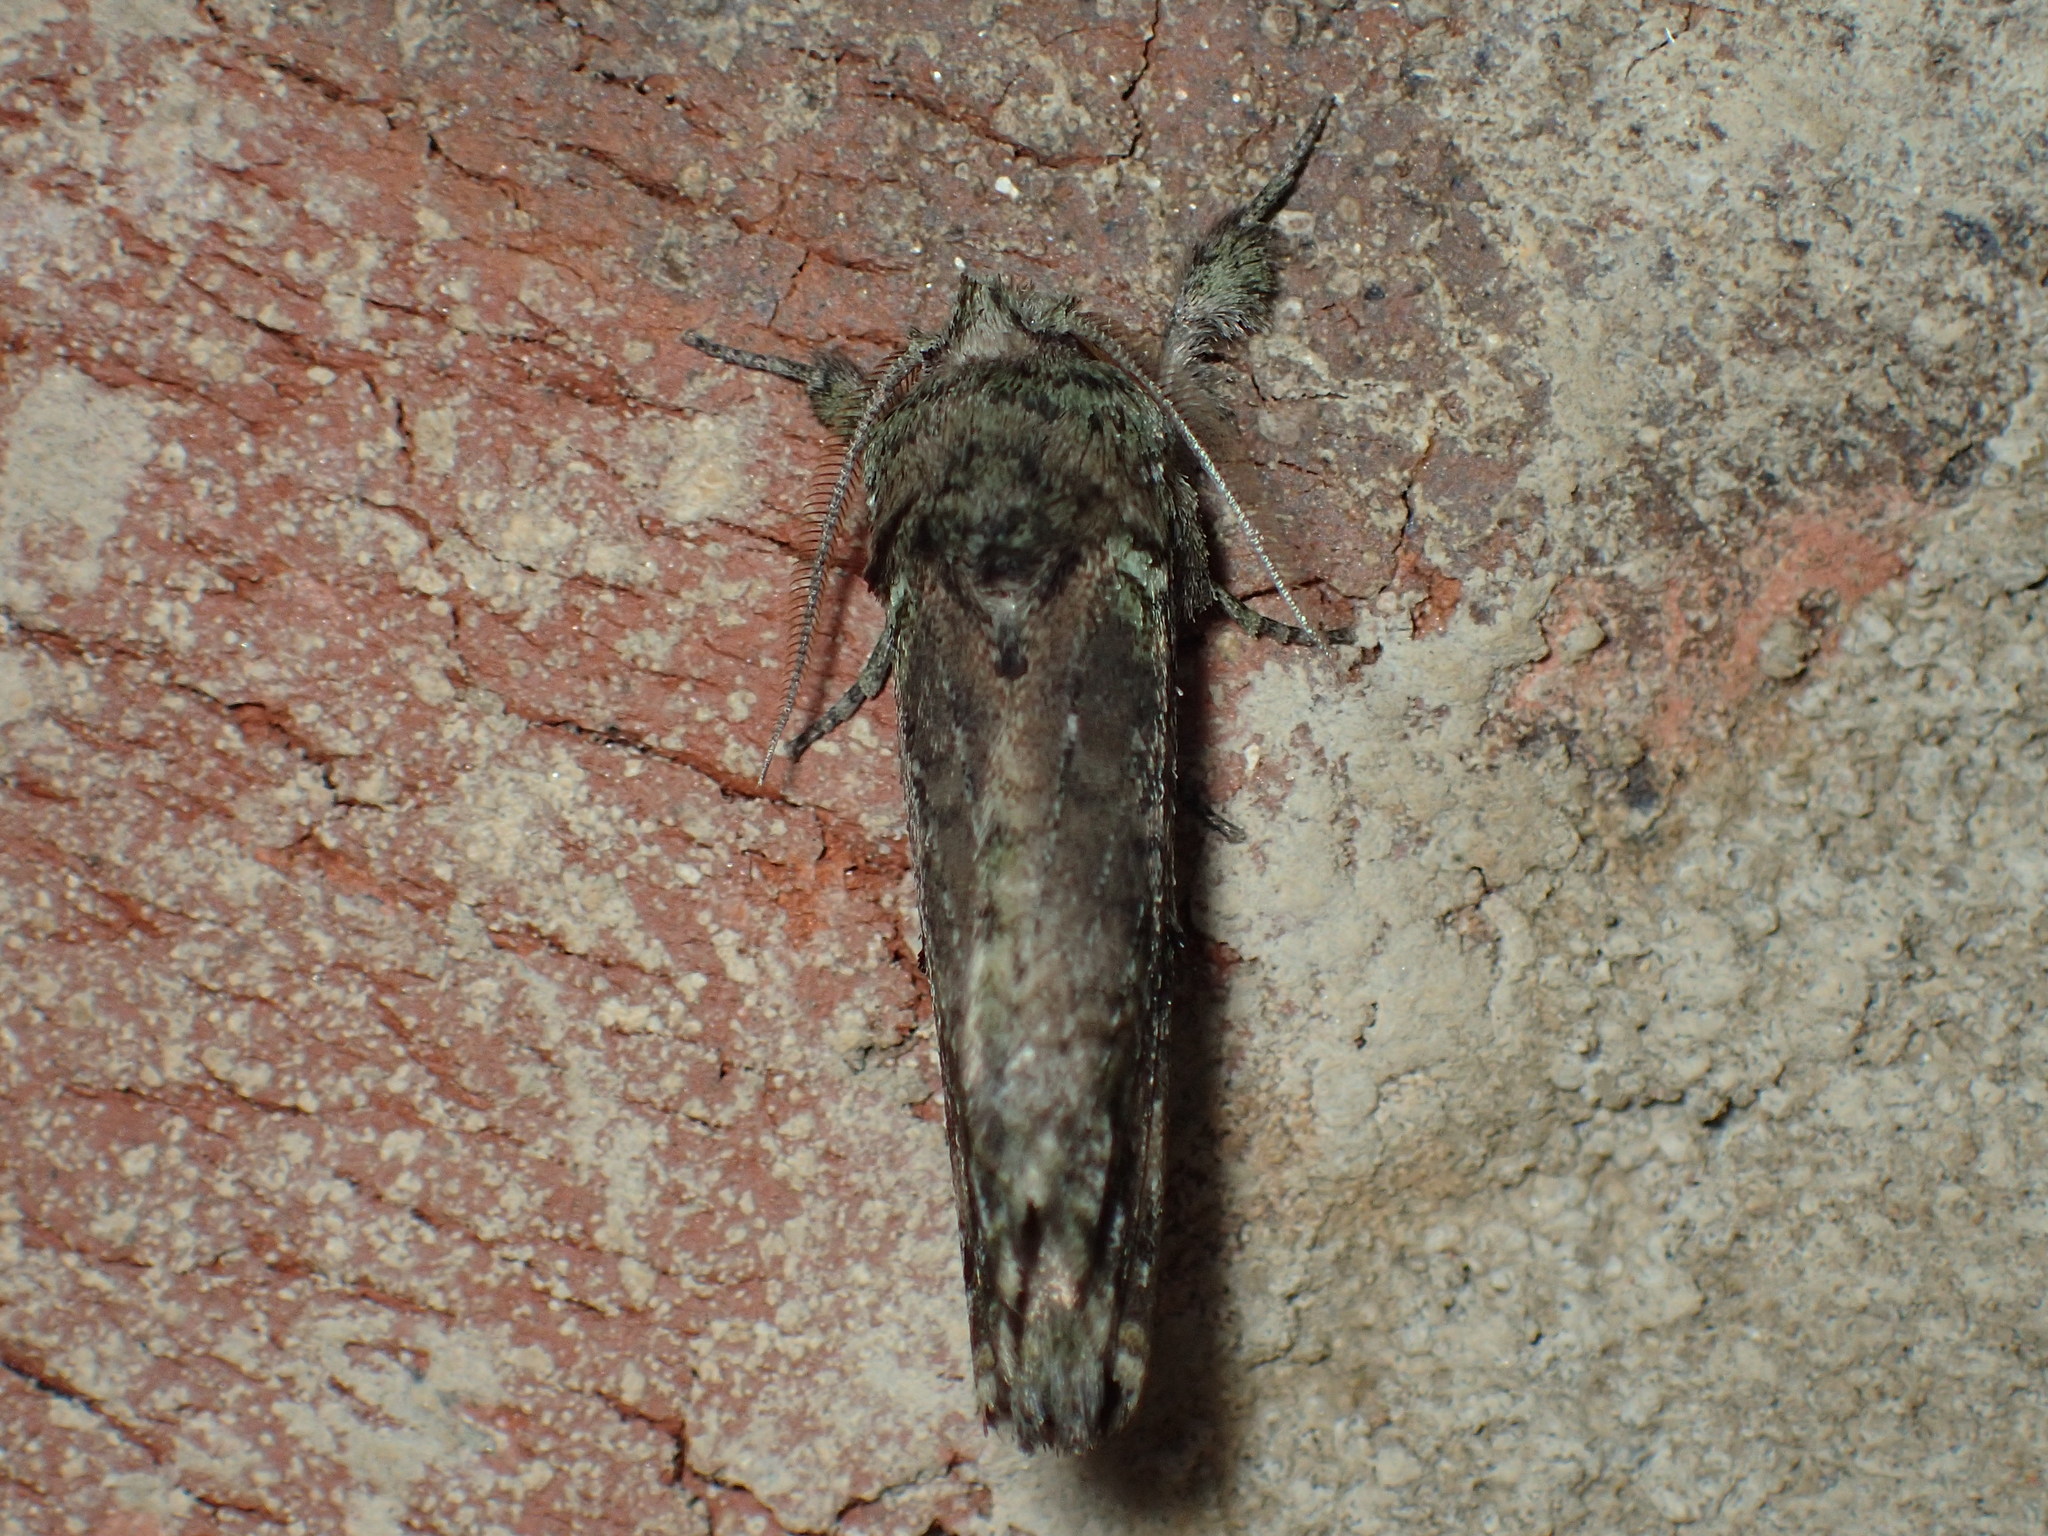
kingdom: Animalia
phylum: Arthropoda
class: Insecta
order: Lepidoptera
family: Notodontidae
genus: Schizura
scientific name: Schizura
